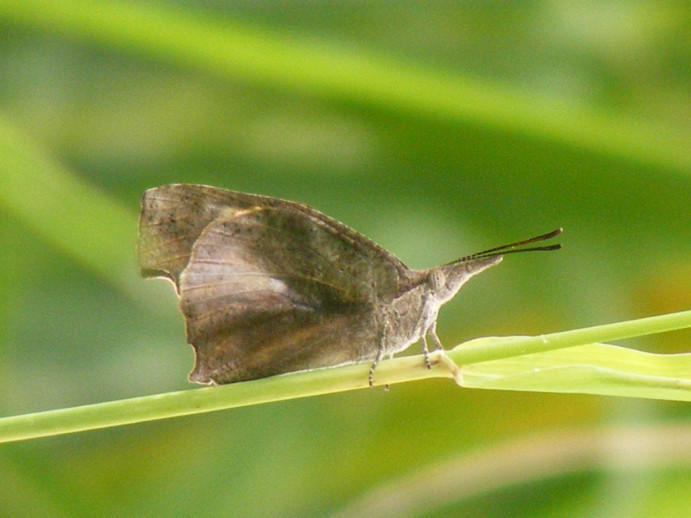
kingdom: Animalia
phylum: Arthropoda
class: Insecta
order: Lepidoptera
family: Nymphalidae
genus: Libythea
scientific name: Libythea laius
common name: African snout
